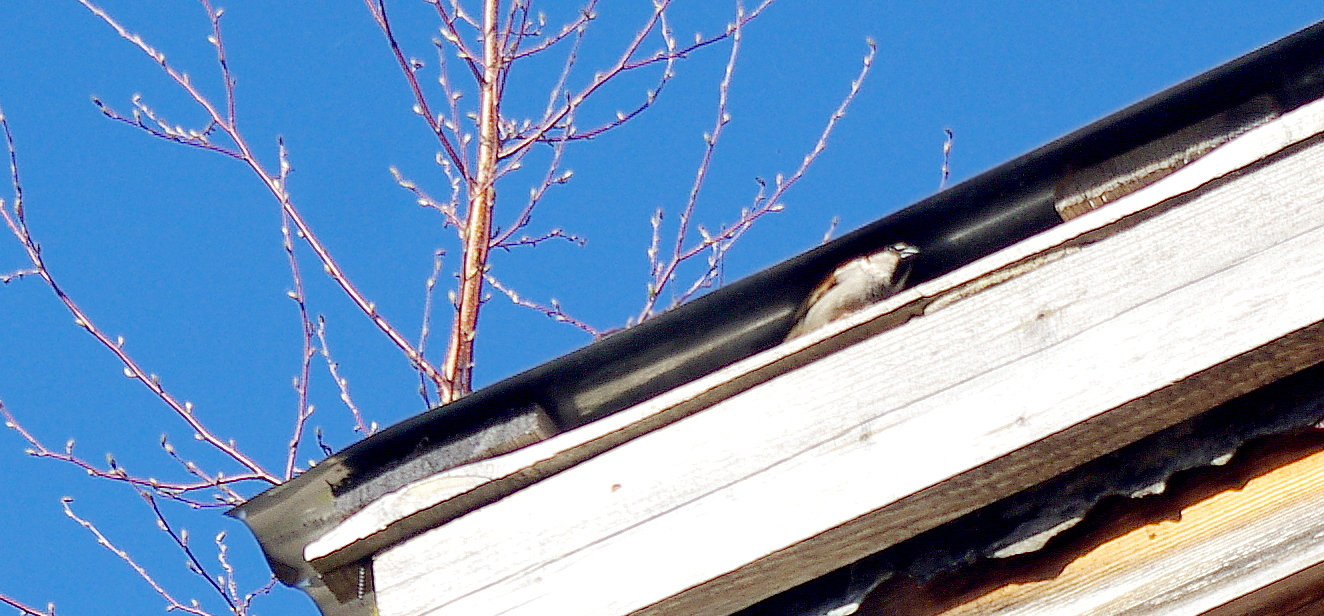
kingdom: Animalia
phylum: Chordata
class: Aves
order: Passeriformes
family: Passeridae
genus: Passer
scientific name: Passer domesticus
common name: House sparrow
